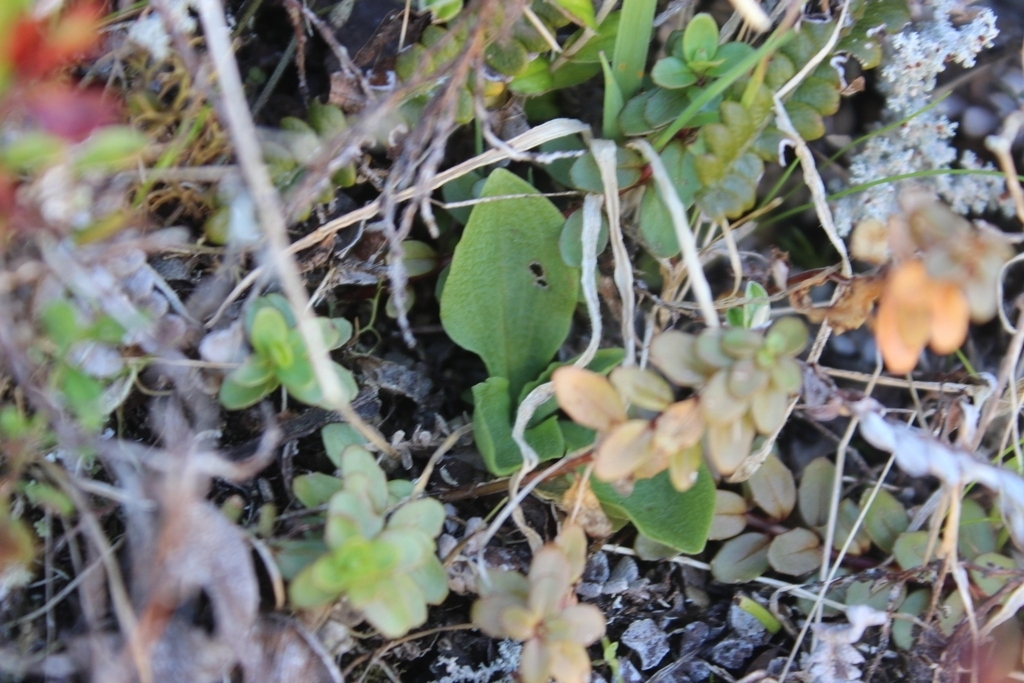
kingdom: Plantae
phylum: Tracheophyta
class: Liliopsida
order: Asparagales
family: Orchidaceae
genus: Pterostylis
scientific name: Pterostylis foliata
